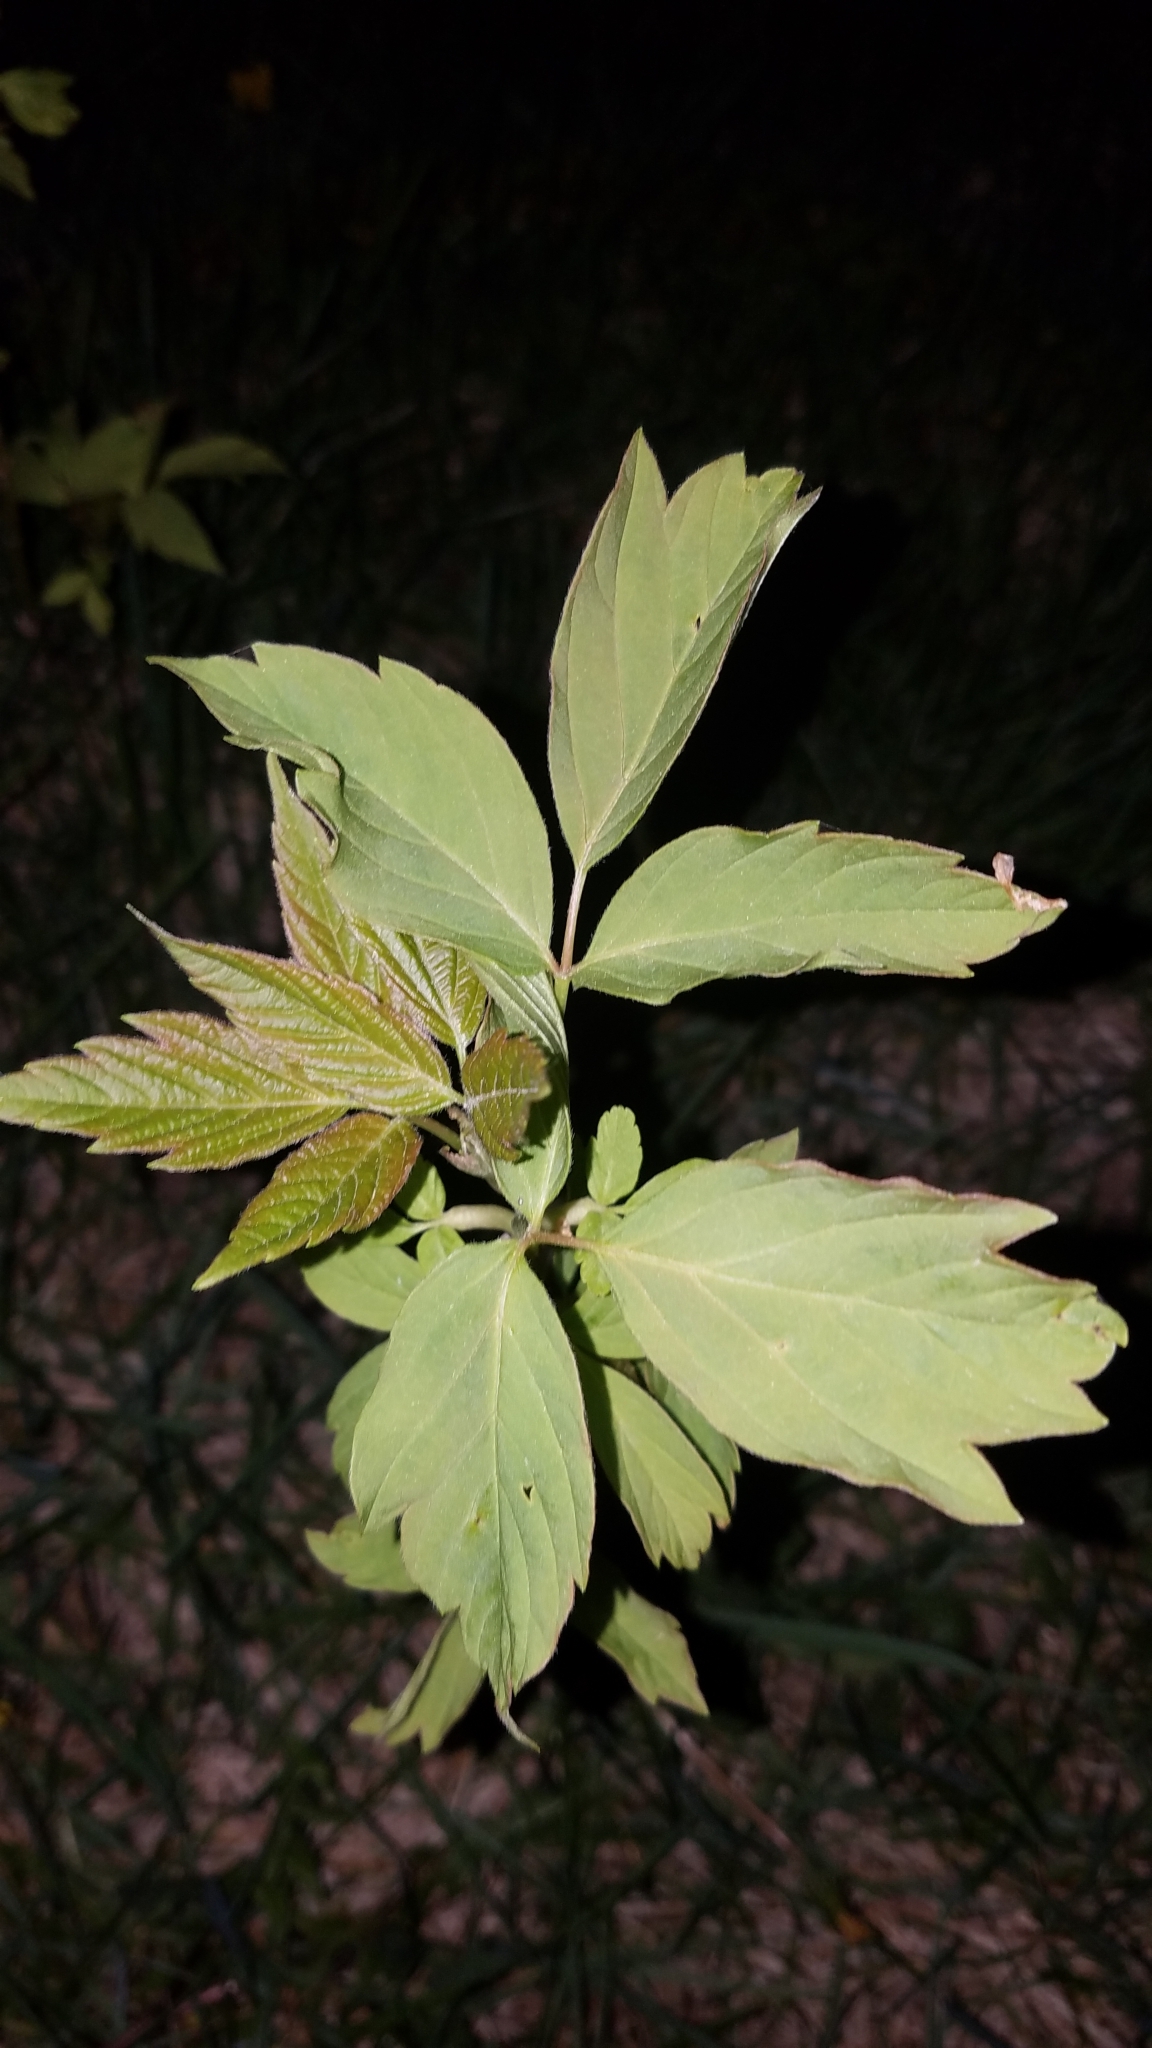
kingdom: Plantae
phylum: Tracheophyta
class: Magnoliopsida
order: Sapindales
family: Sapindaceae
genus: Acer
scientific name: Acer negundo
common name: Ashleaf maple
